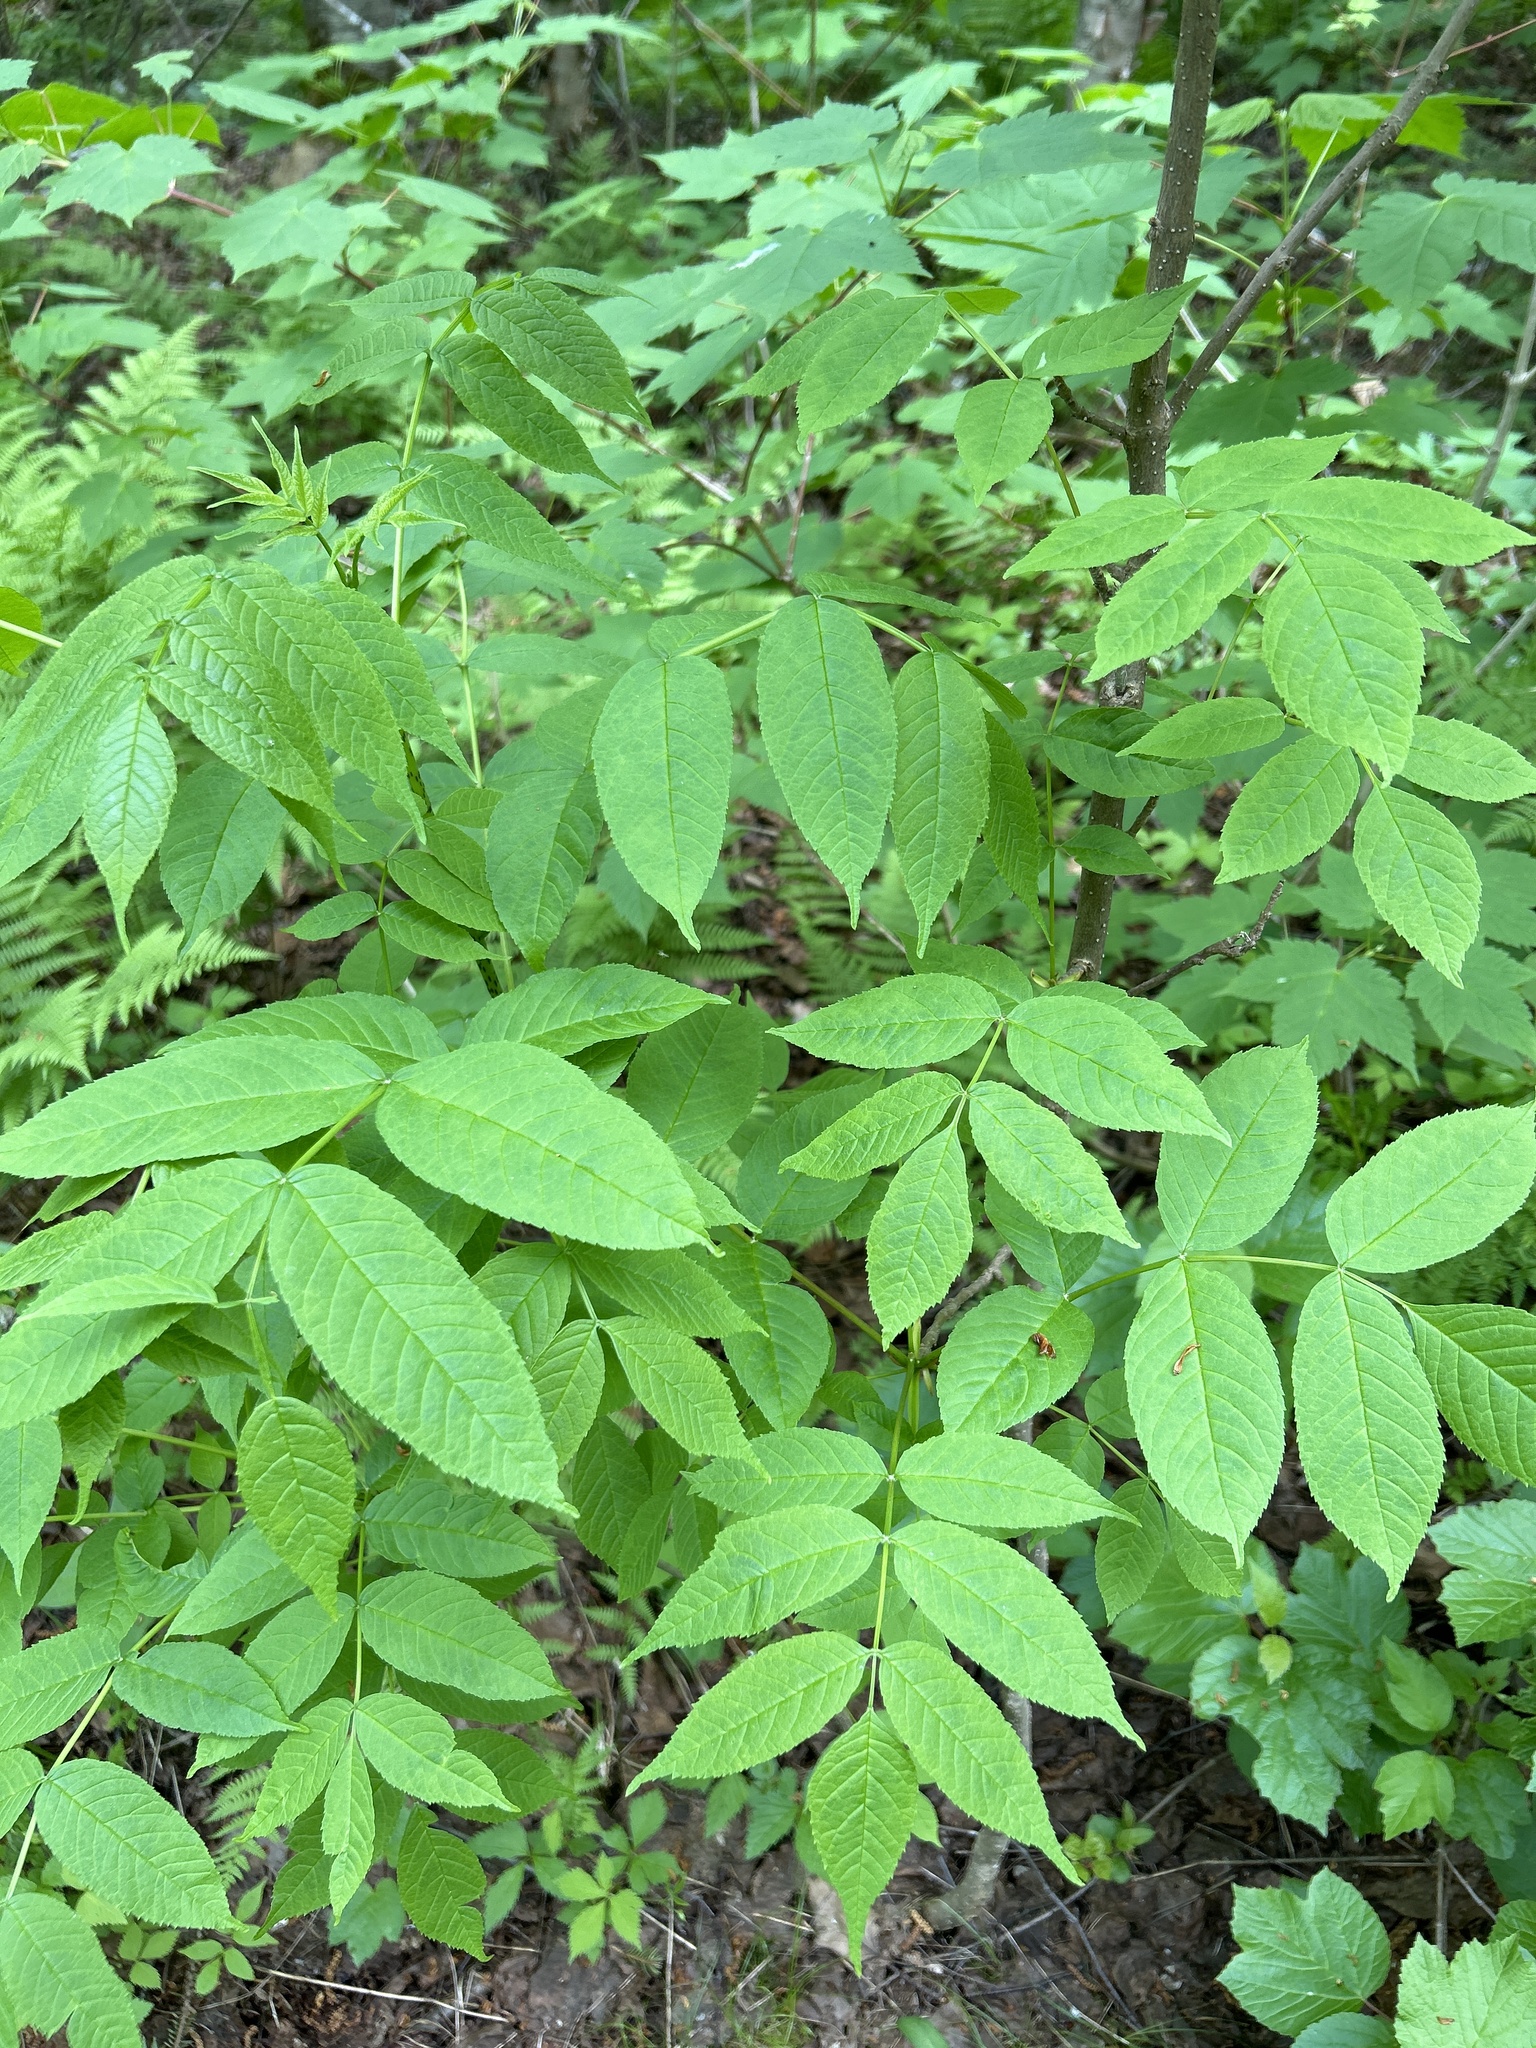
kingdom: Plantae
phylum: Tracheophyta
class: Magnoliopsida
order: Lamiales
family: Oleaceae
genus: Fraxinus
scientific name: Fraxinus nigra
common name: Black ash
